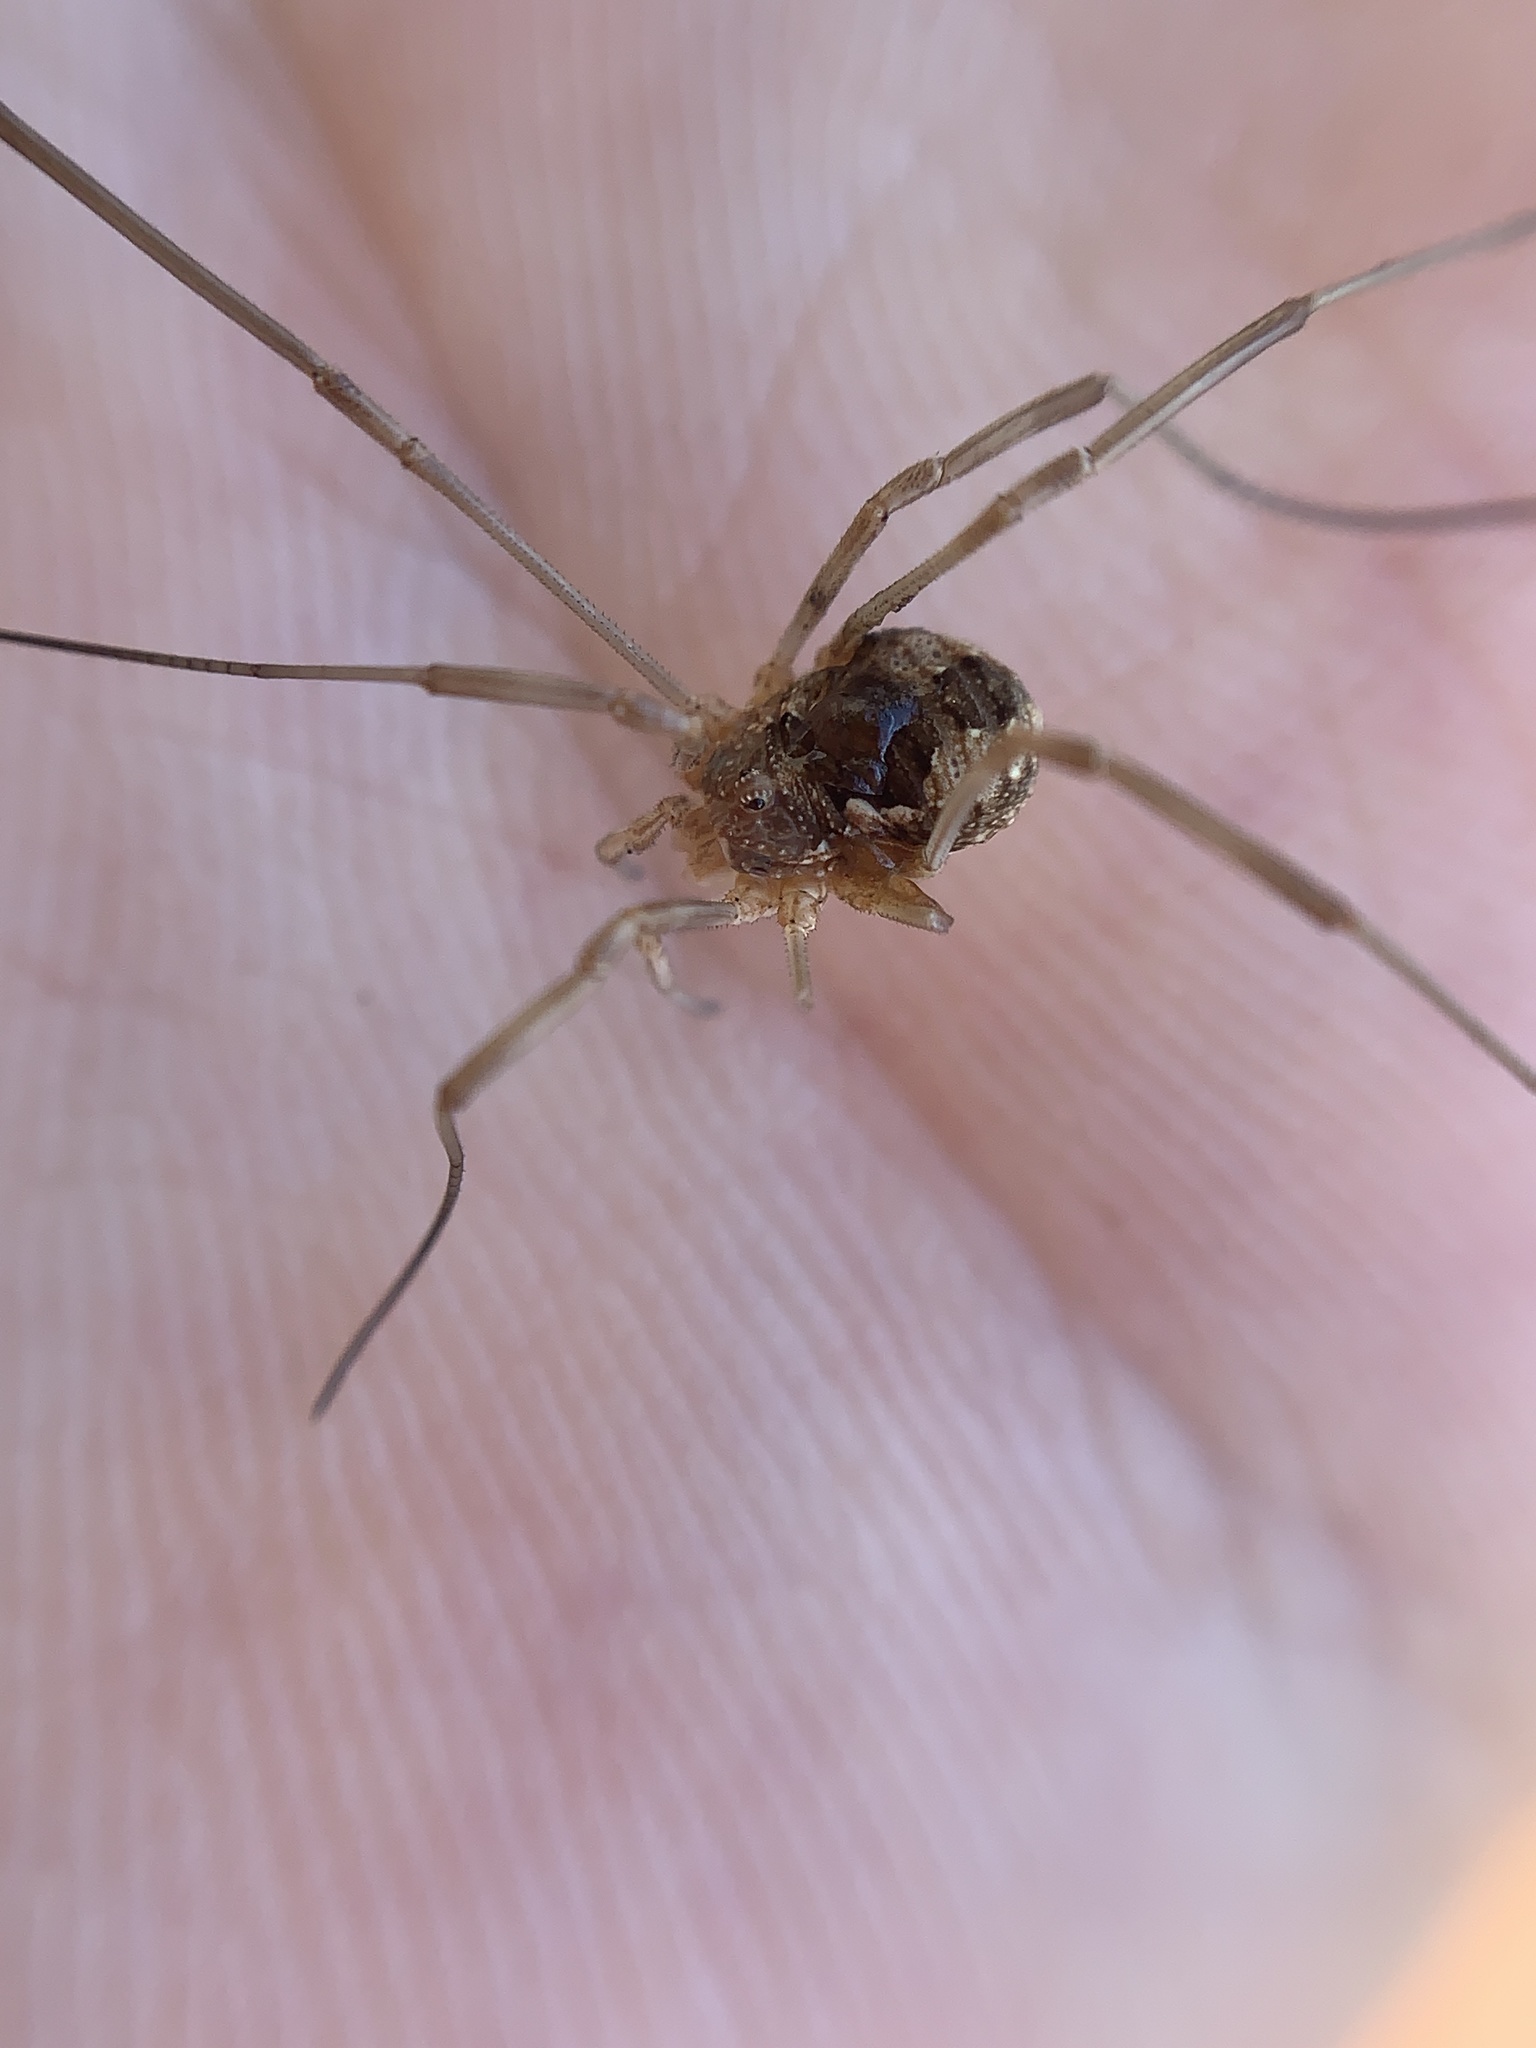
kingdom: Animalia
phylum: Arthropoda
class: Arachnida
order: Opiliones
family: Phalangiidae
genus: Phalangium
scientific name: Phalangium opilio
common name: Daddy longleg
